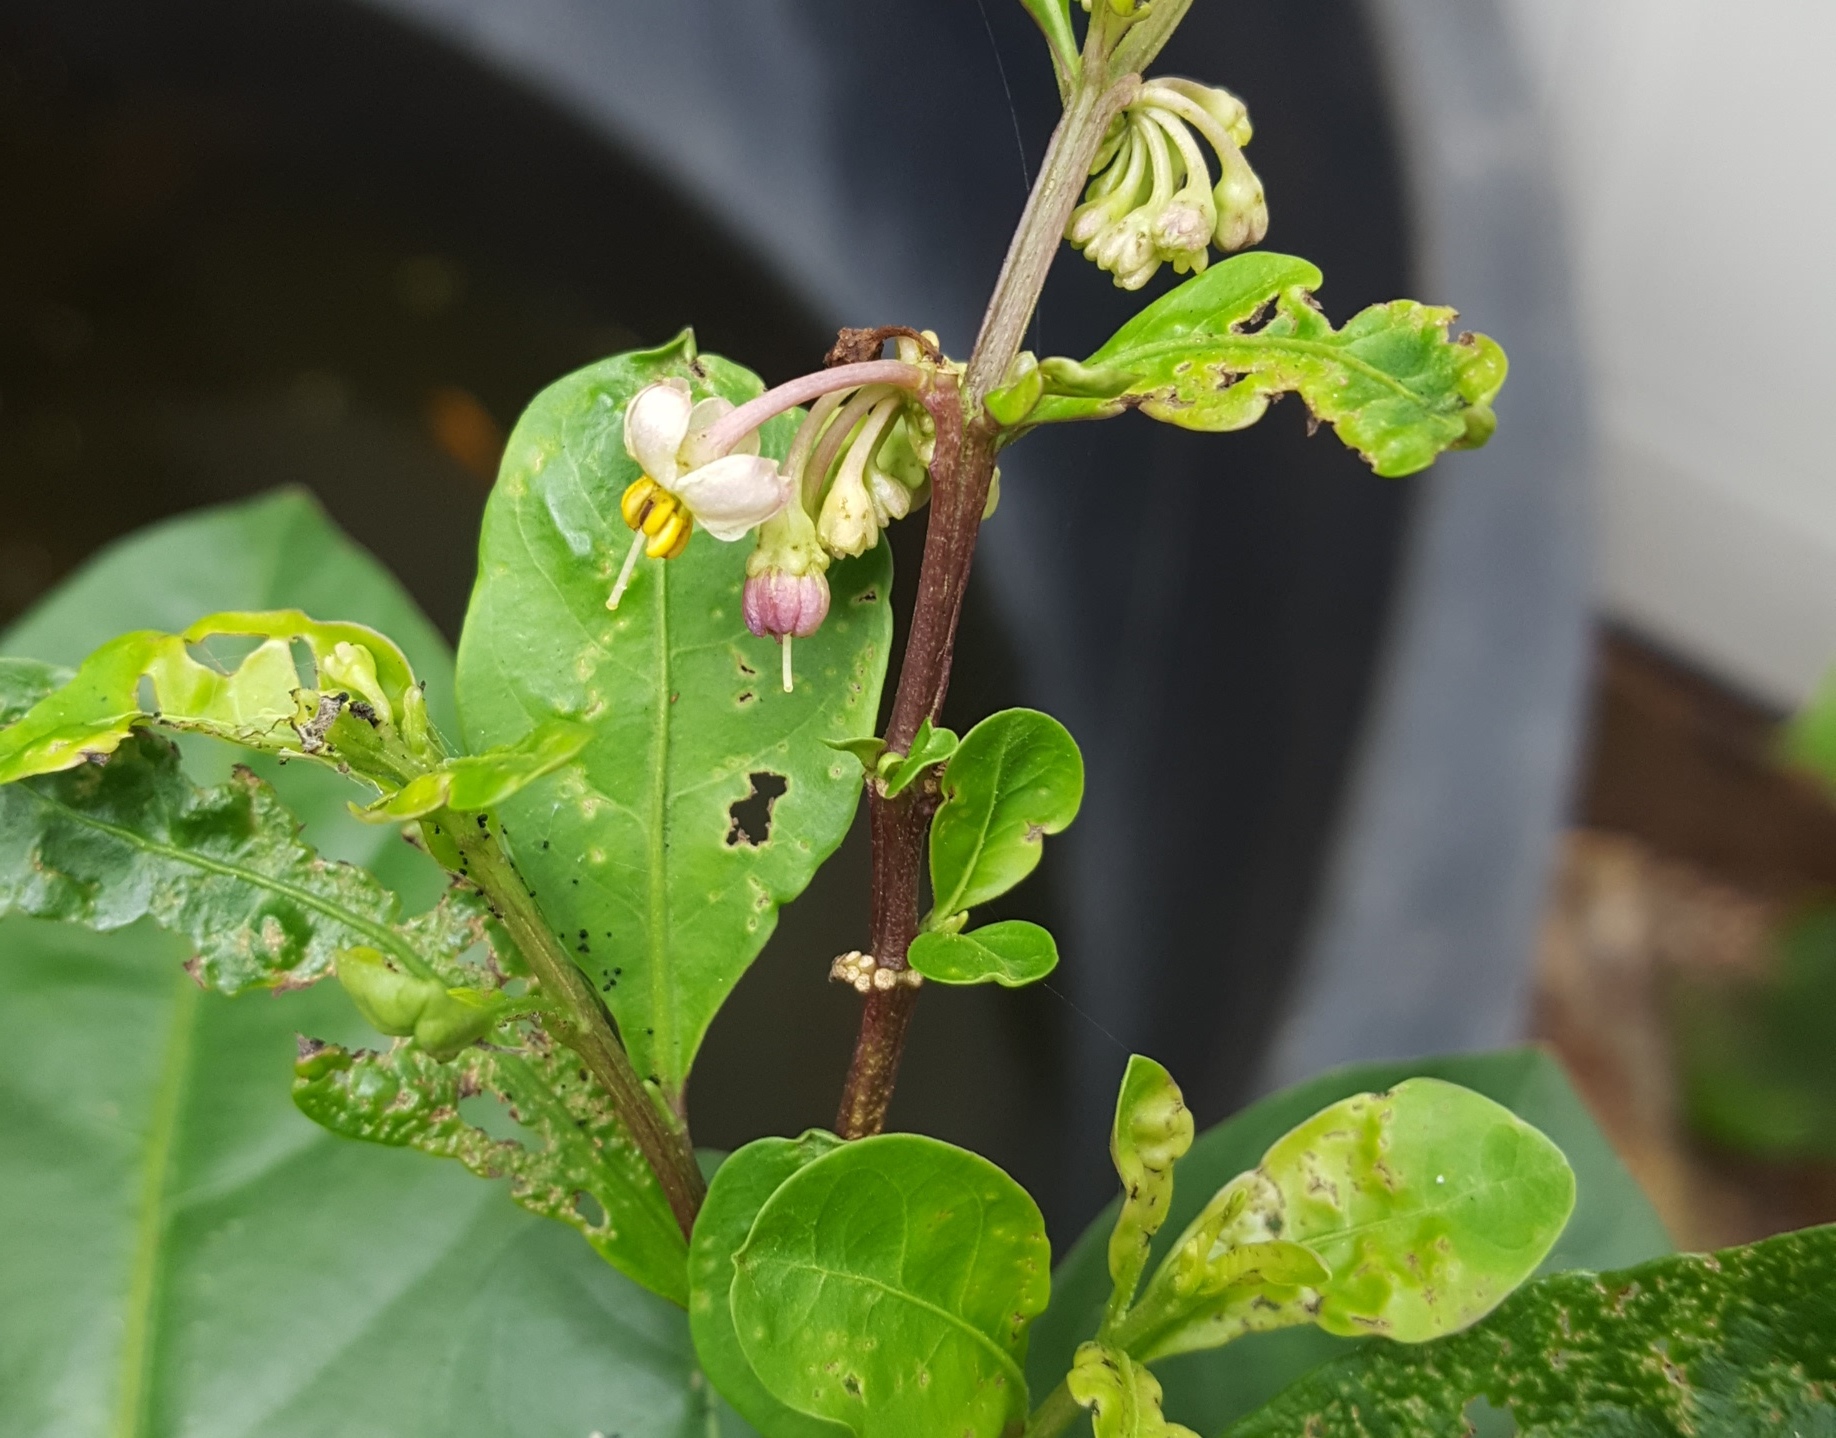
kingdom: Plantae
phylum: Tracheophyta
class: Magnoliopsida
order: Solanales
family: Solanaceae
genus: Solanum
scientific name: Solanum diphyllum
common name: Twoleaf nightshade
